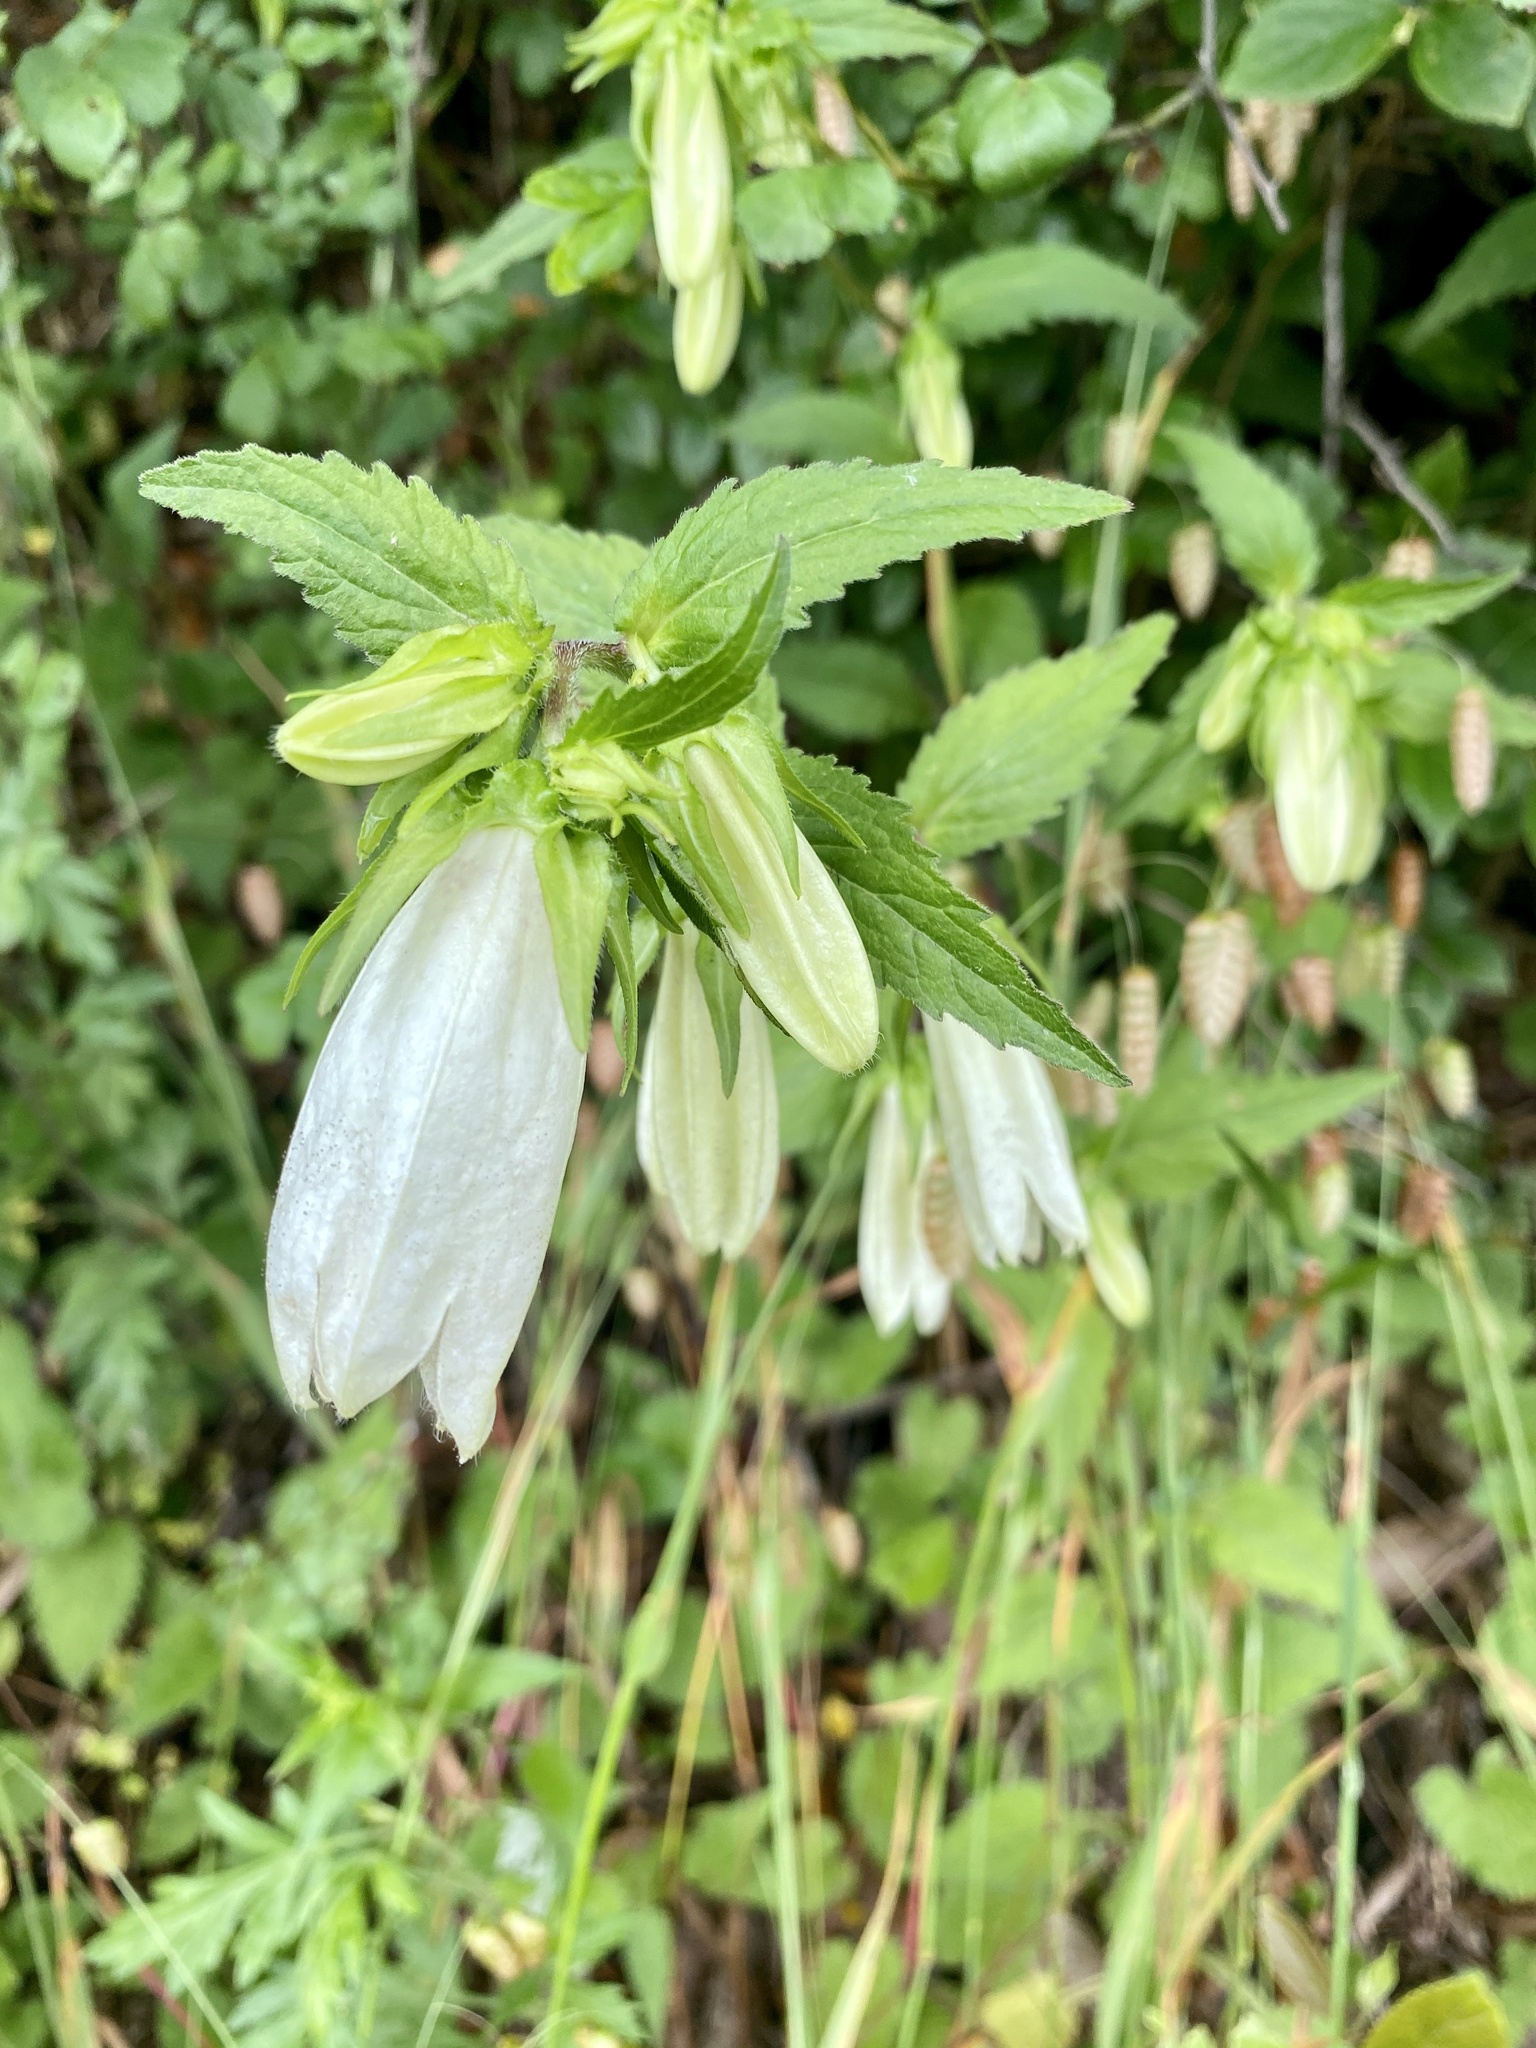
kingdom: Plantae
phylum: Tracheophyta
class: Magnoliopsida
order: Asterales
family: Campanulaceae
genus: Campanula
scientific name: Campanula punctata
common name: Spotted bellflower
